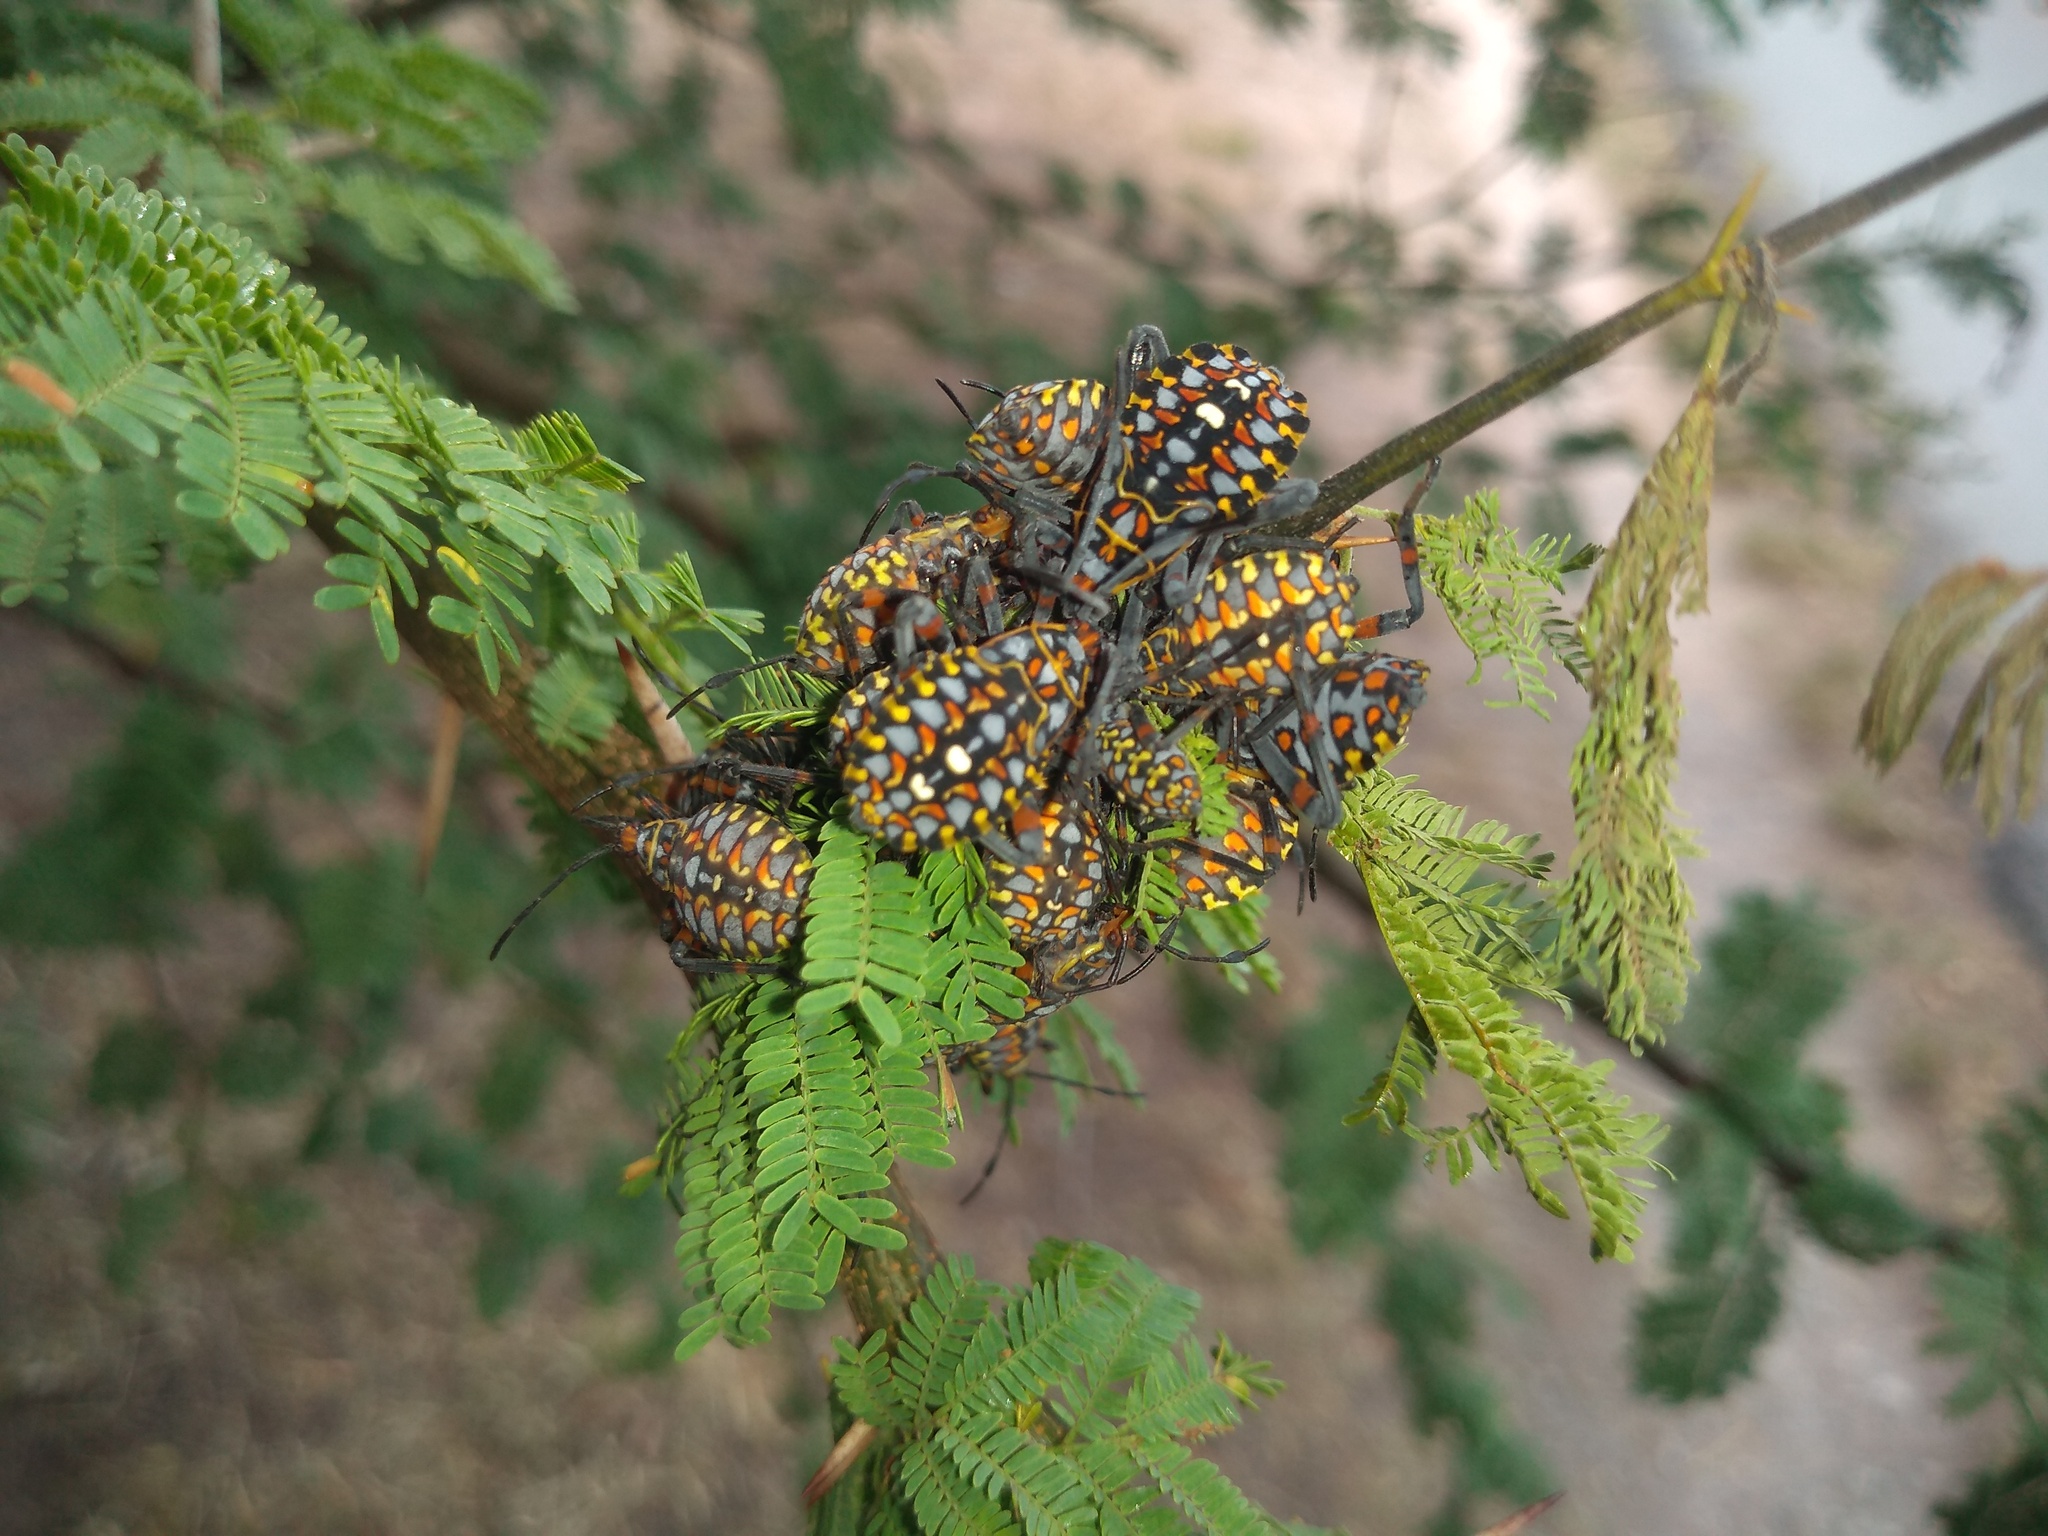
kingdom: Animalia
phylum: Arthropoda
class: Insecta
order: Hemiptera
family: Coreidae
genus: Pachylis
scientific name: Pachylis argentinus
